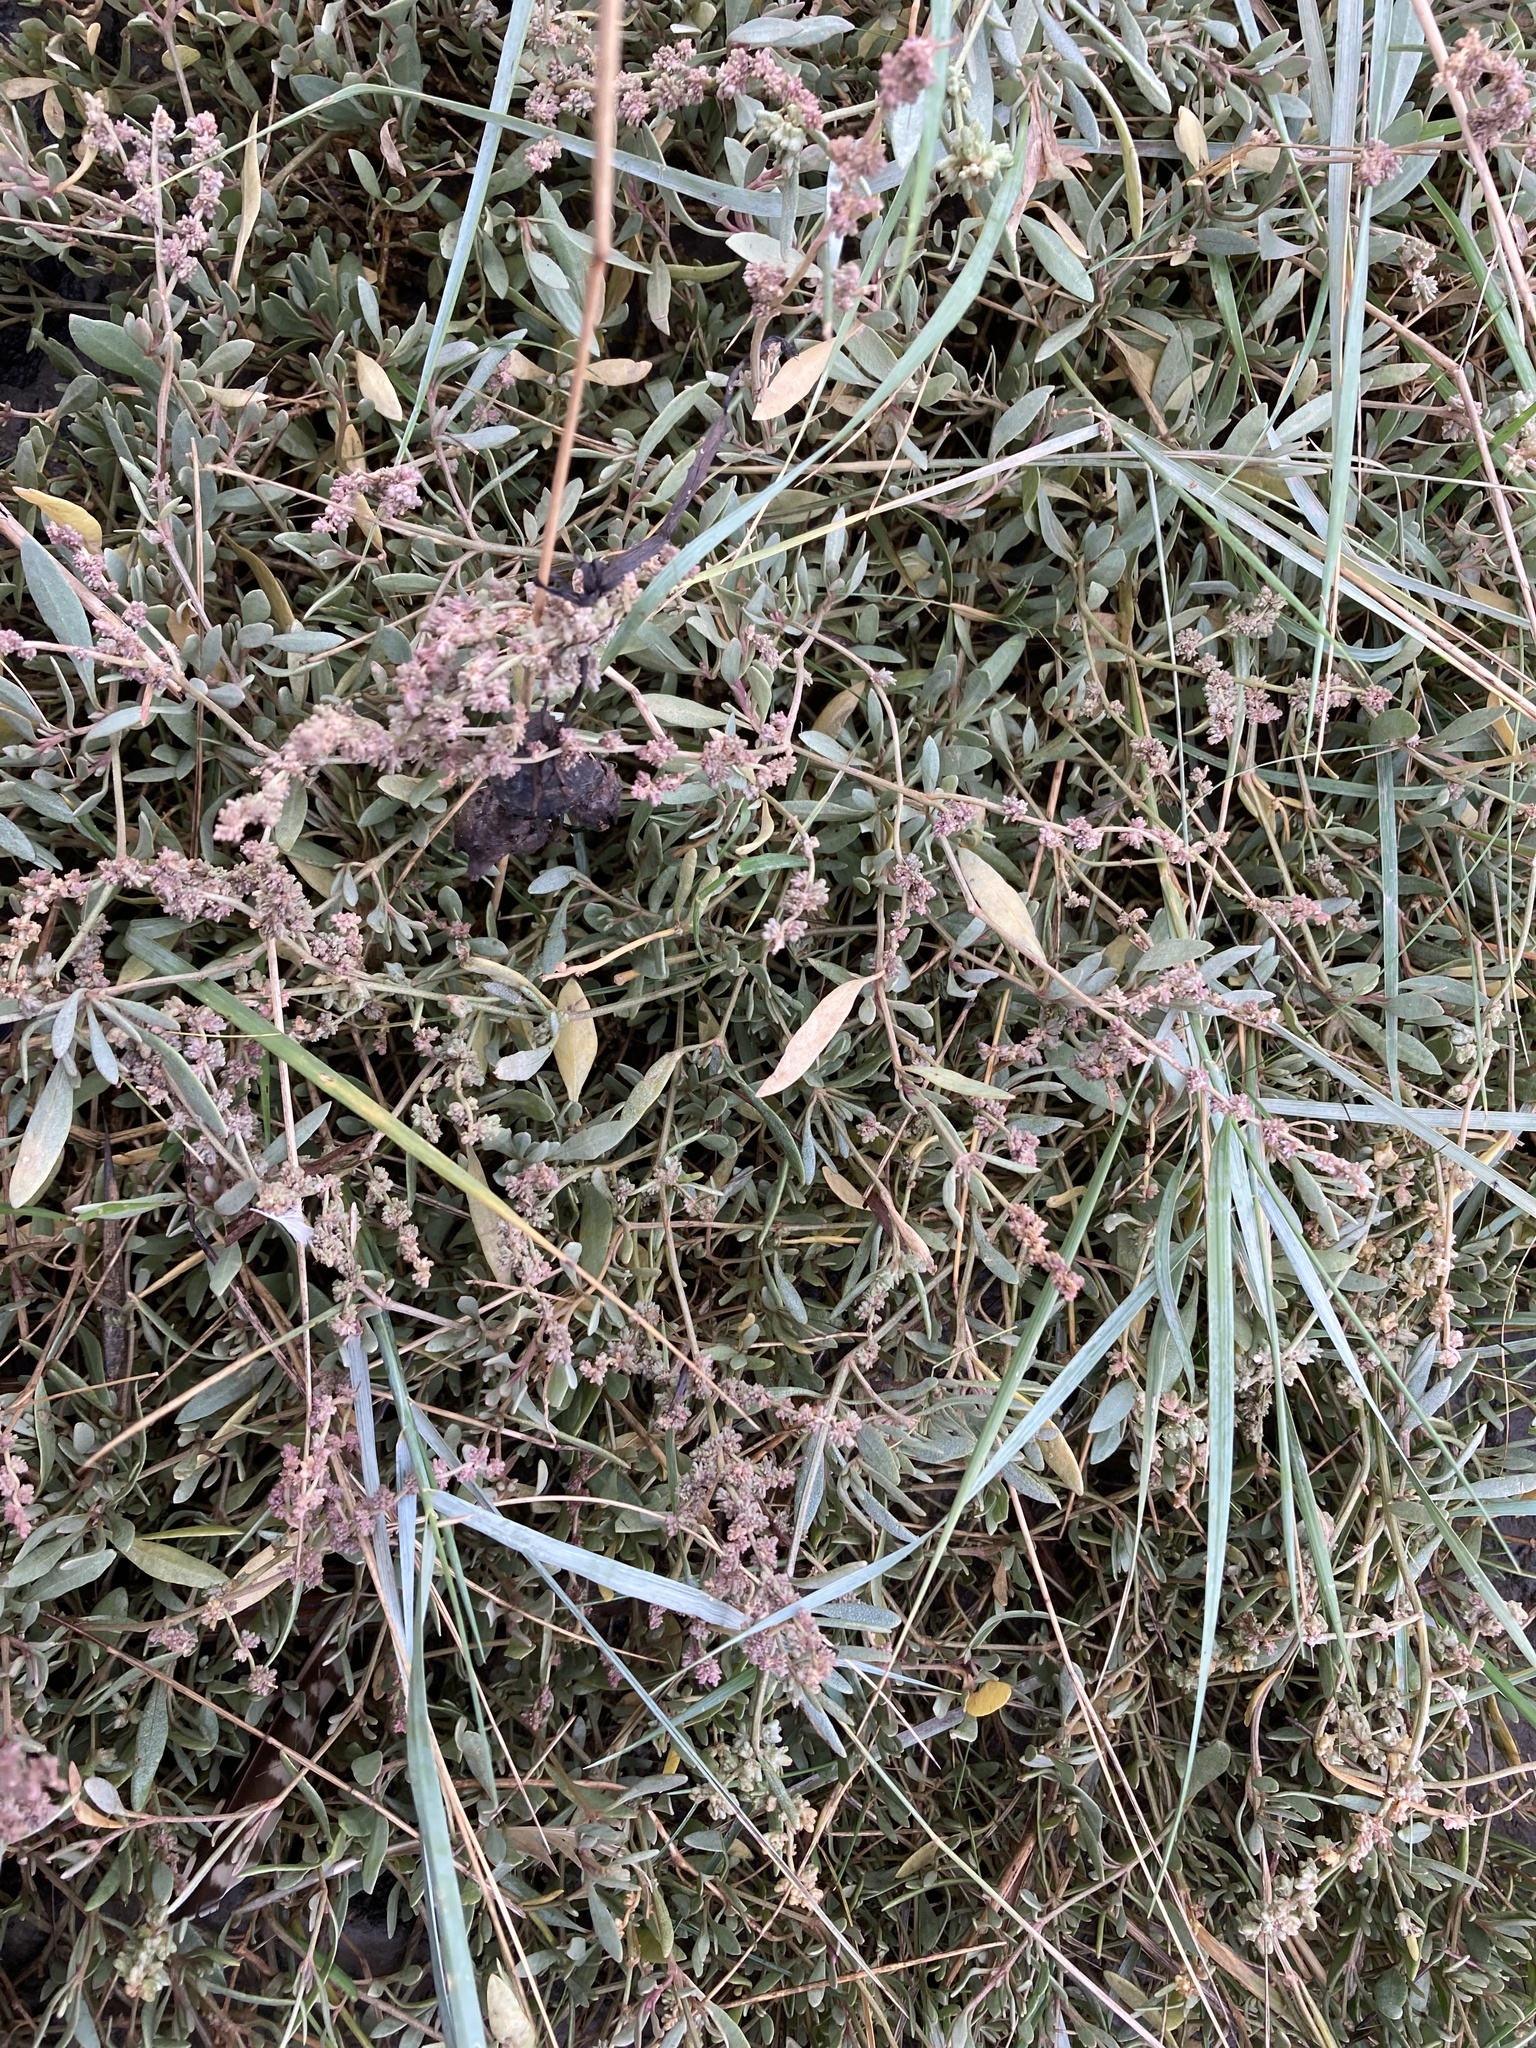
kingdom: Plantae
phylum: Tracheophyta
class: Magnoliopsida
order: Caryophyllales
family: Amaranthaceae
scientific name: Amaranthaceae
